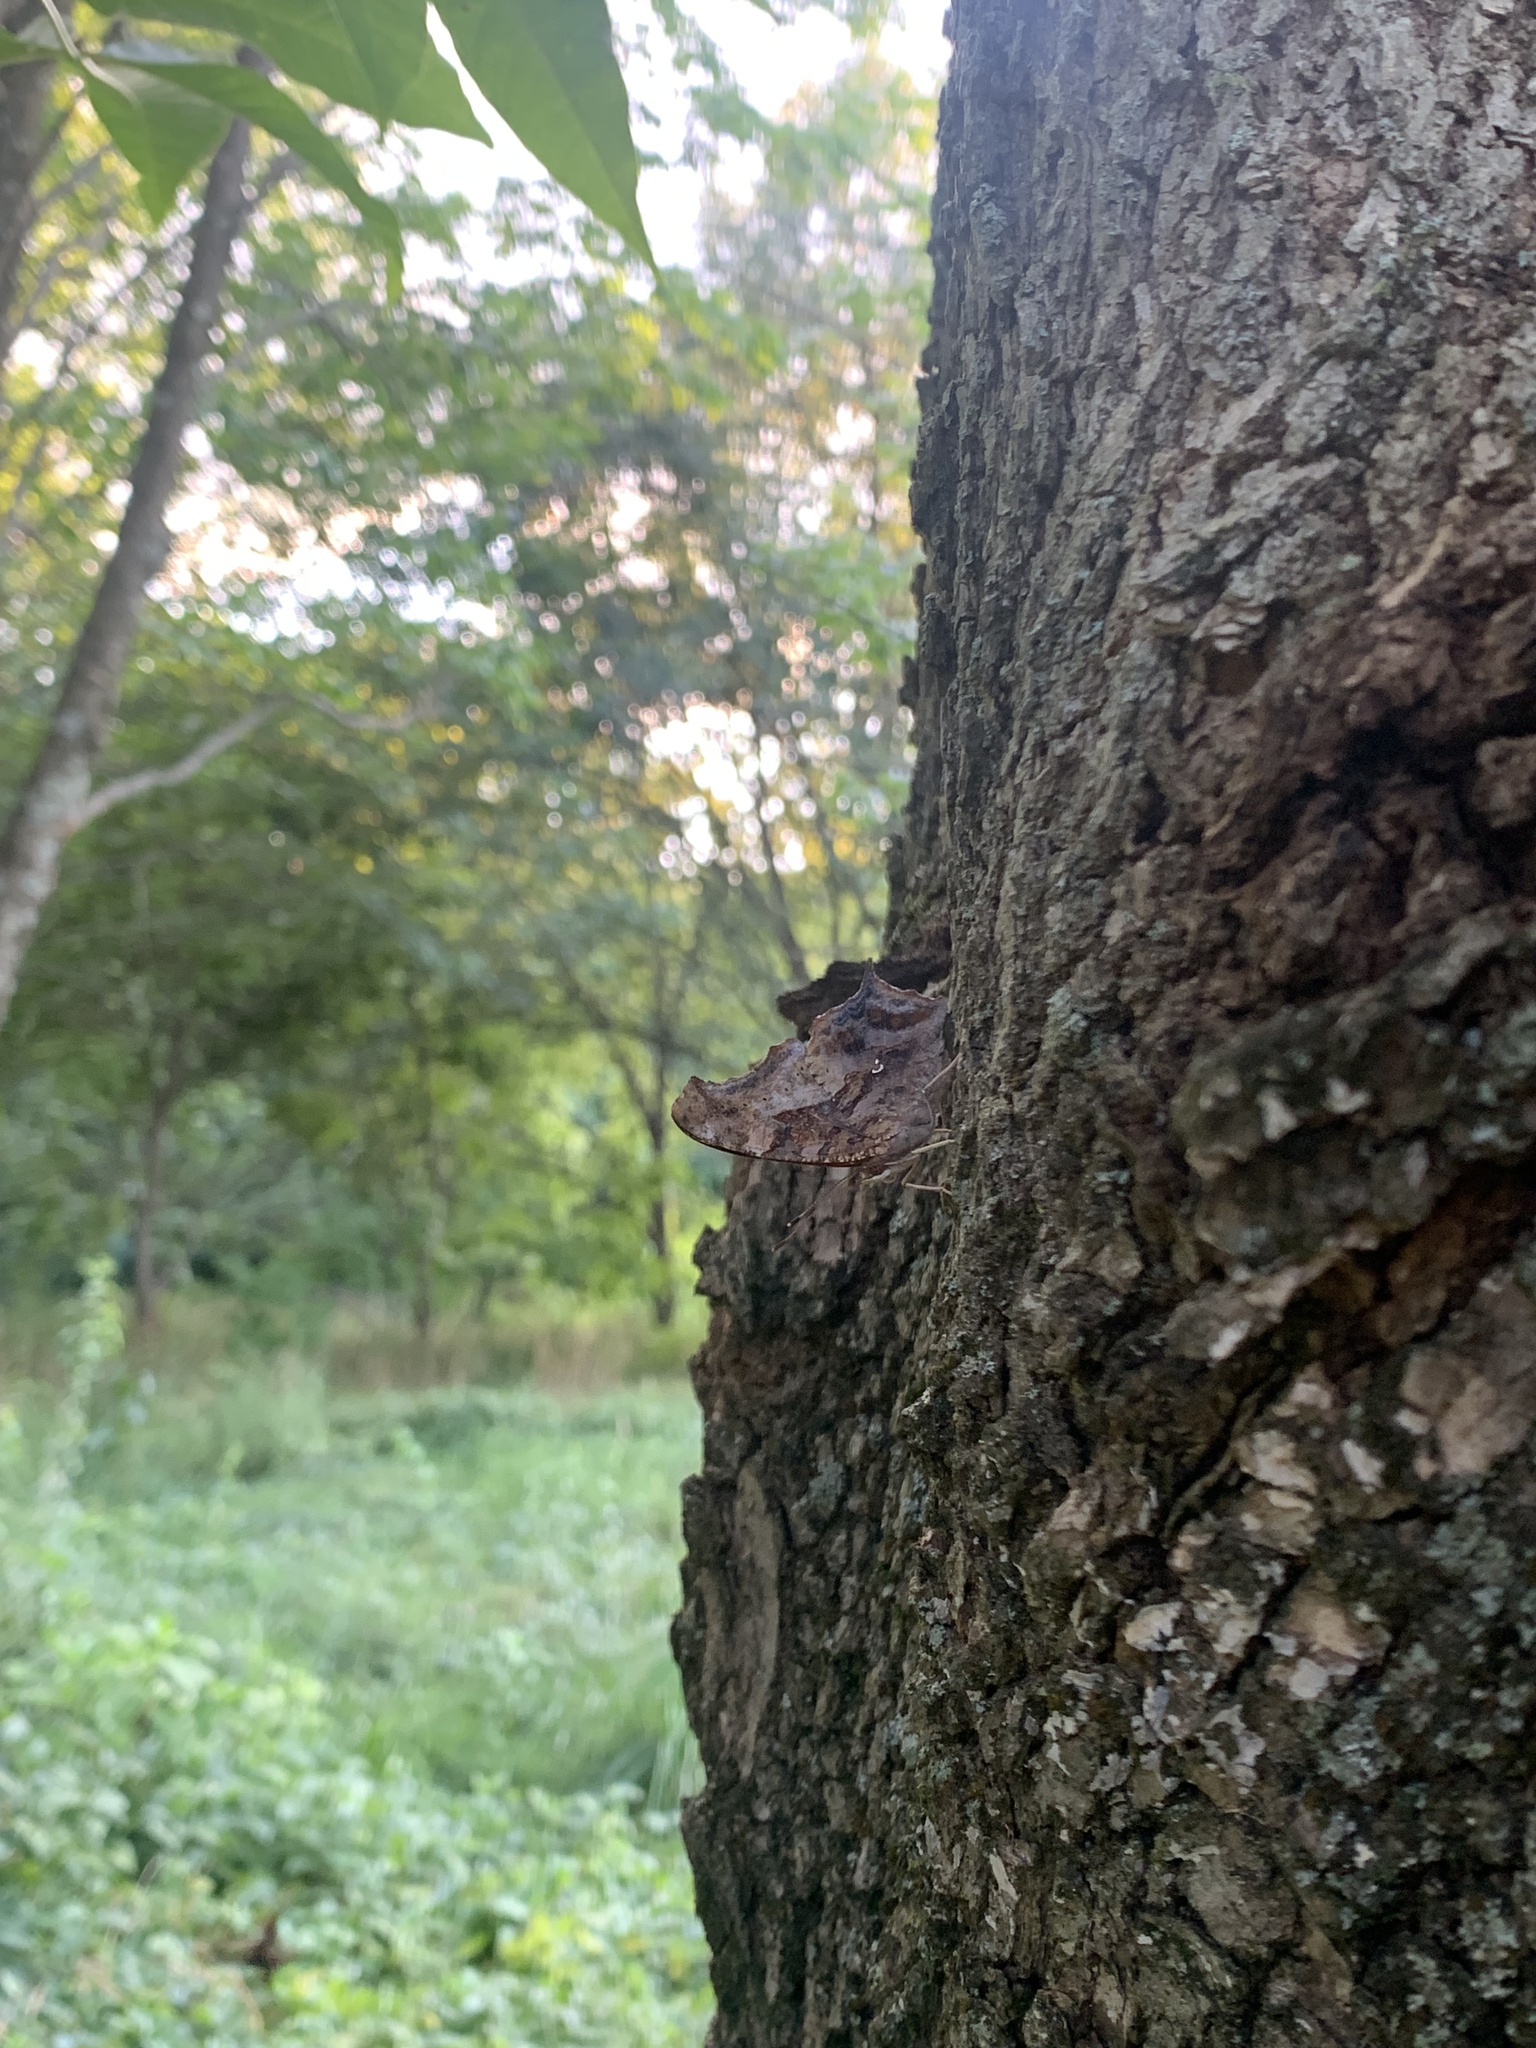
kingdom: Animalia
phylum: Arthropoda
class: Insecta
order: Lepidoptera
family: Nymphalidae
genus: Polygonia
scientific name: Polygonia interrogationis
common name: Question mark
